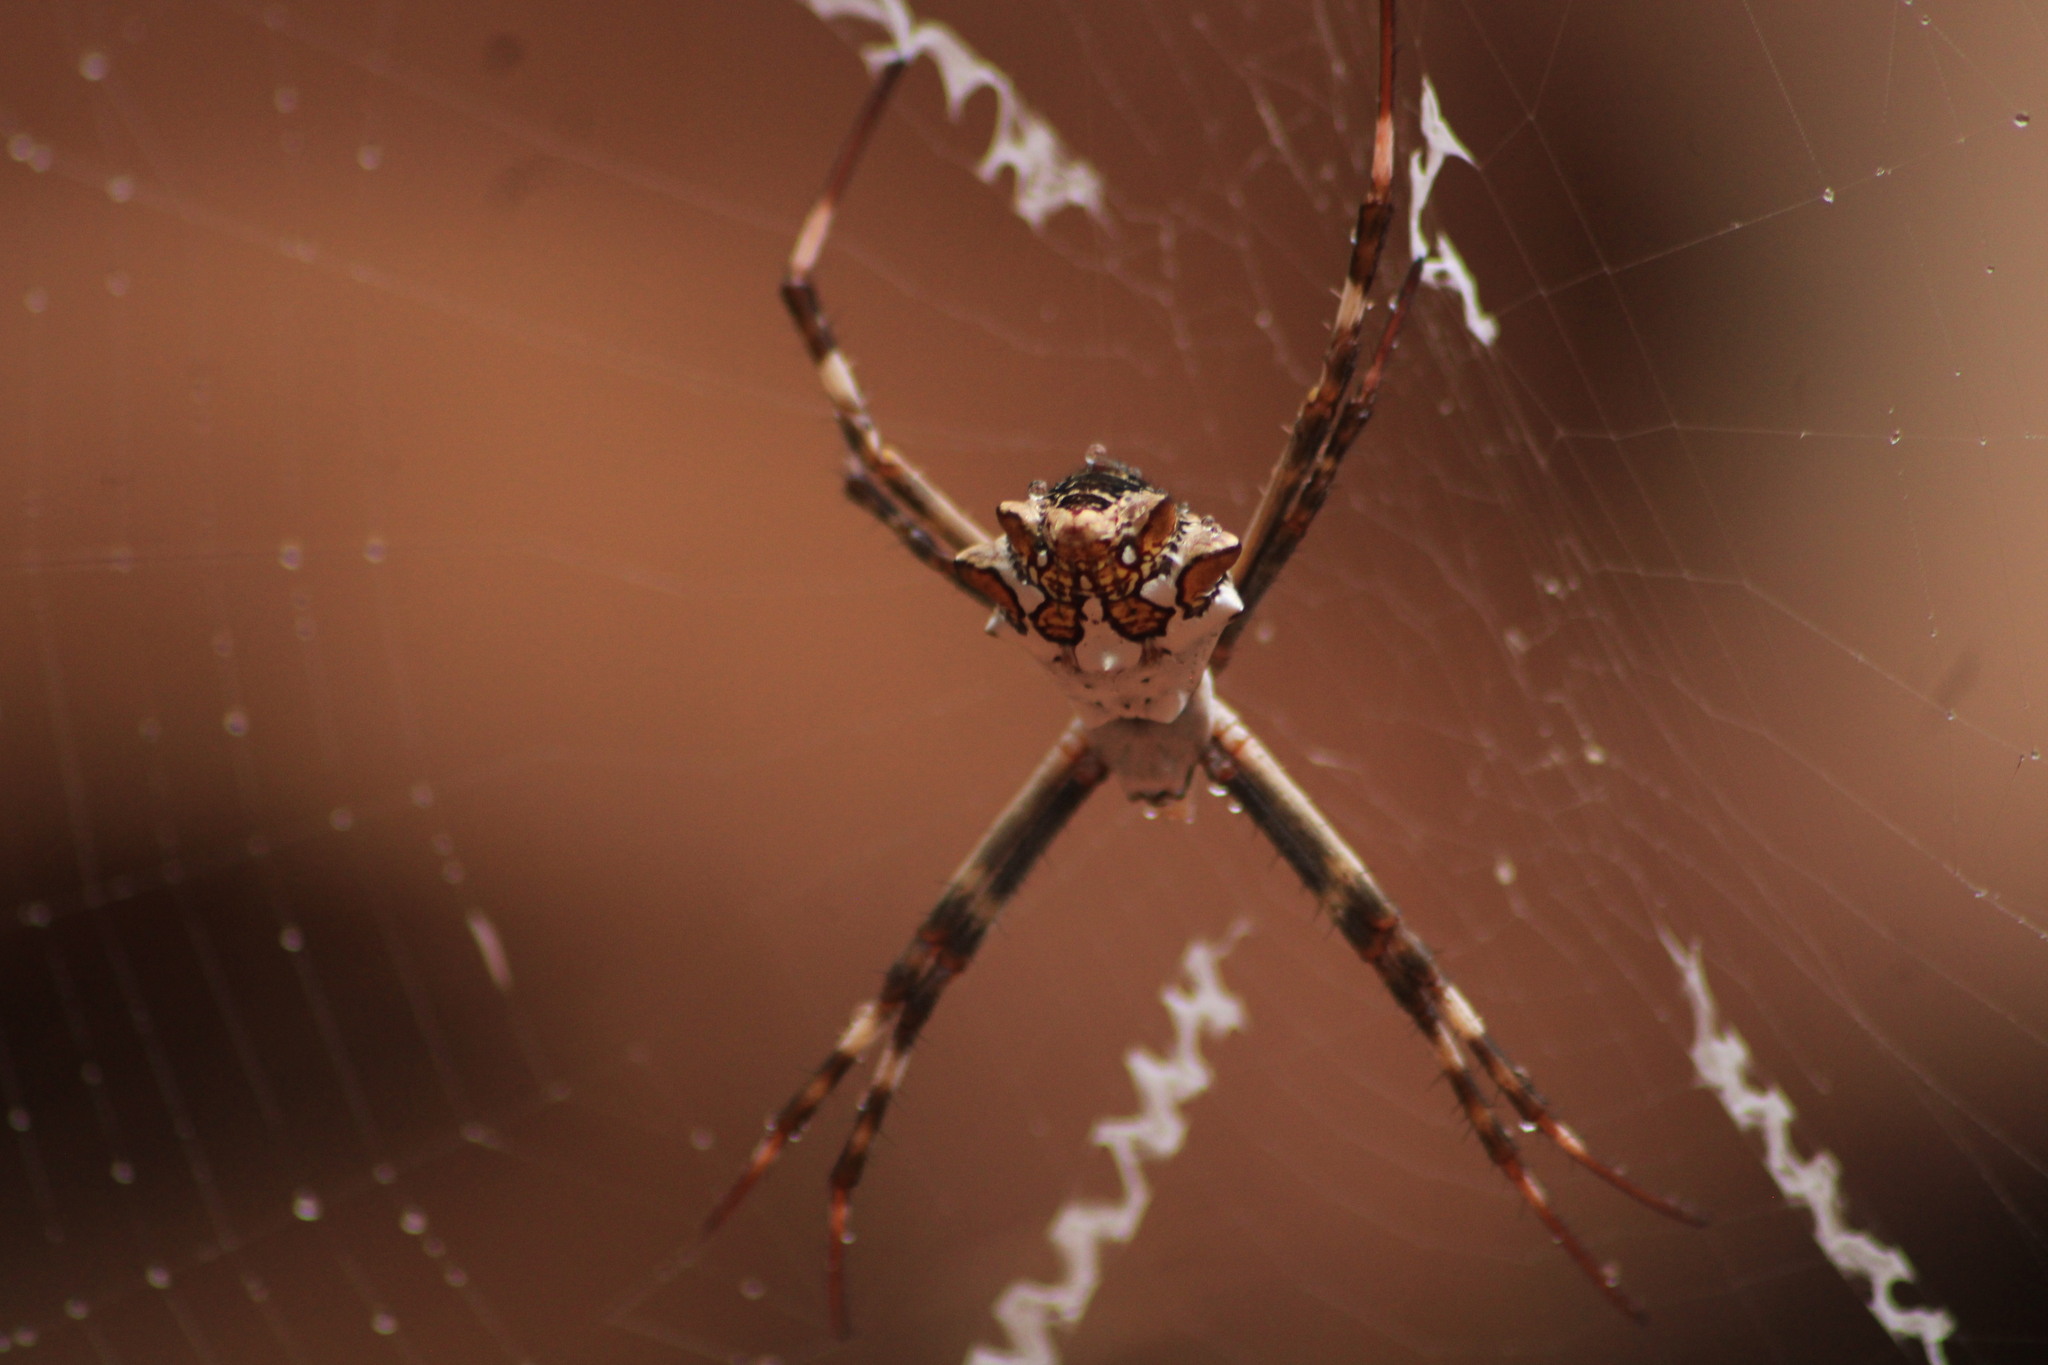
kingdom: Animalia
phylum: Arthropoda
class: Arachnida
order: Araneae
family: Araneidae
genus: Argiope
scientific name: Argiope argentata
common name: Orb weavers
